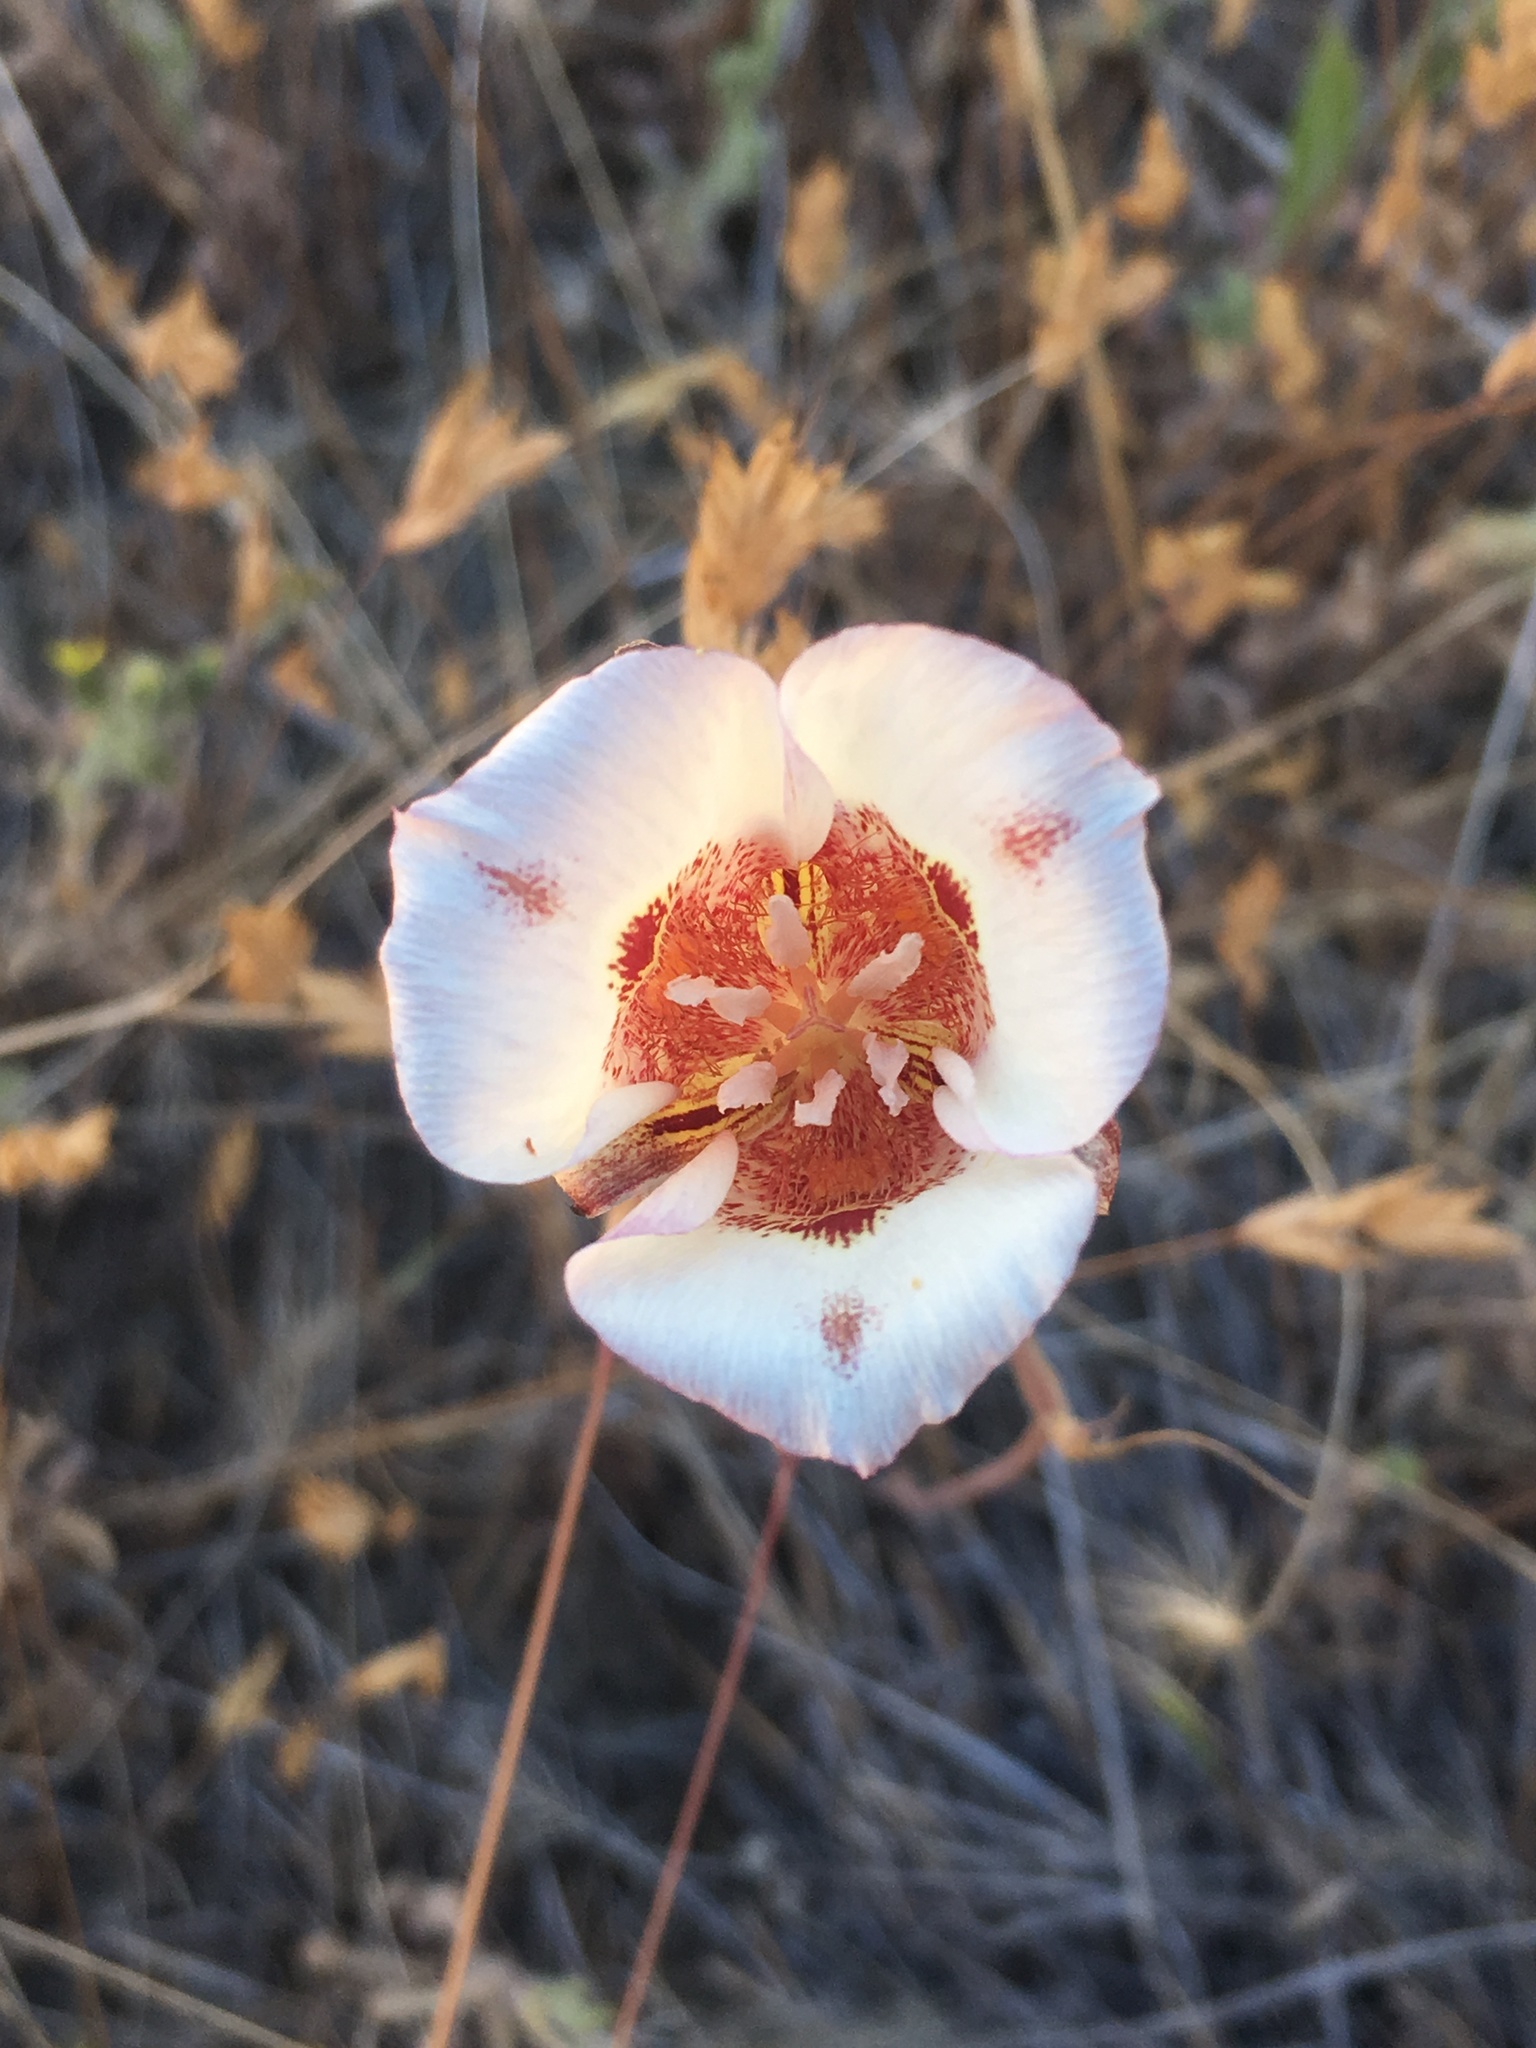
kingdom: Plantae
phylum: Tracheophyta
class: Liliopsida
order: Liliales
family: Liliaceae
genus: Calochortus
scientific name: Calochortus venustus
